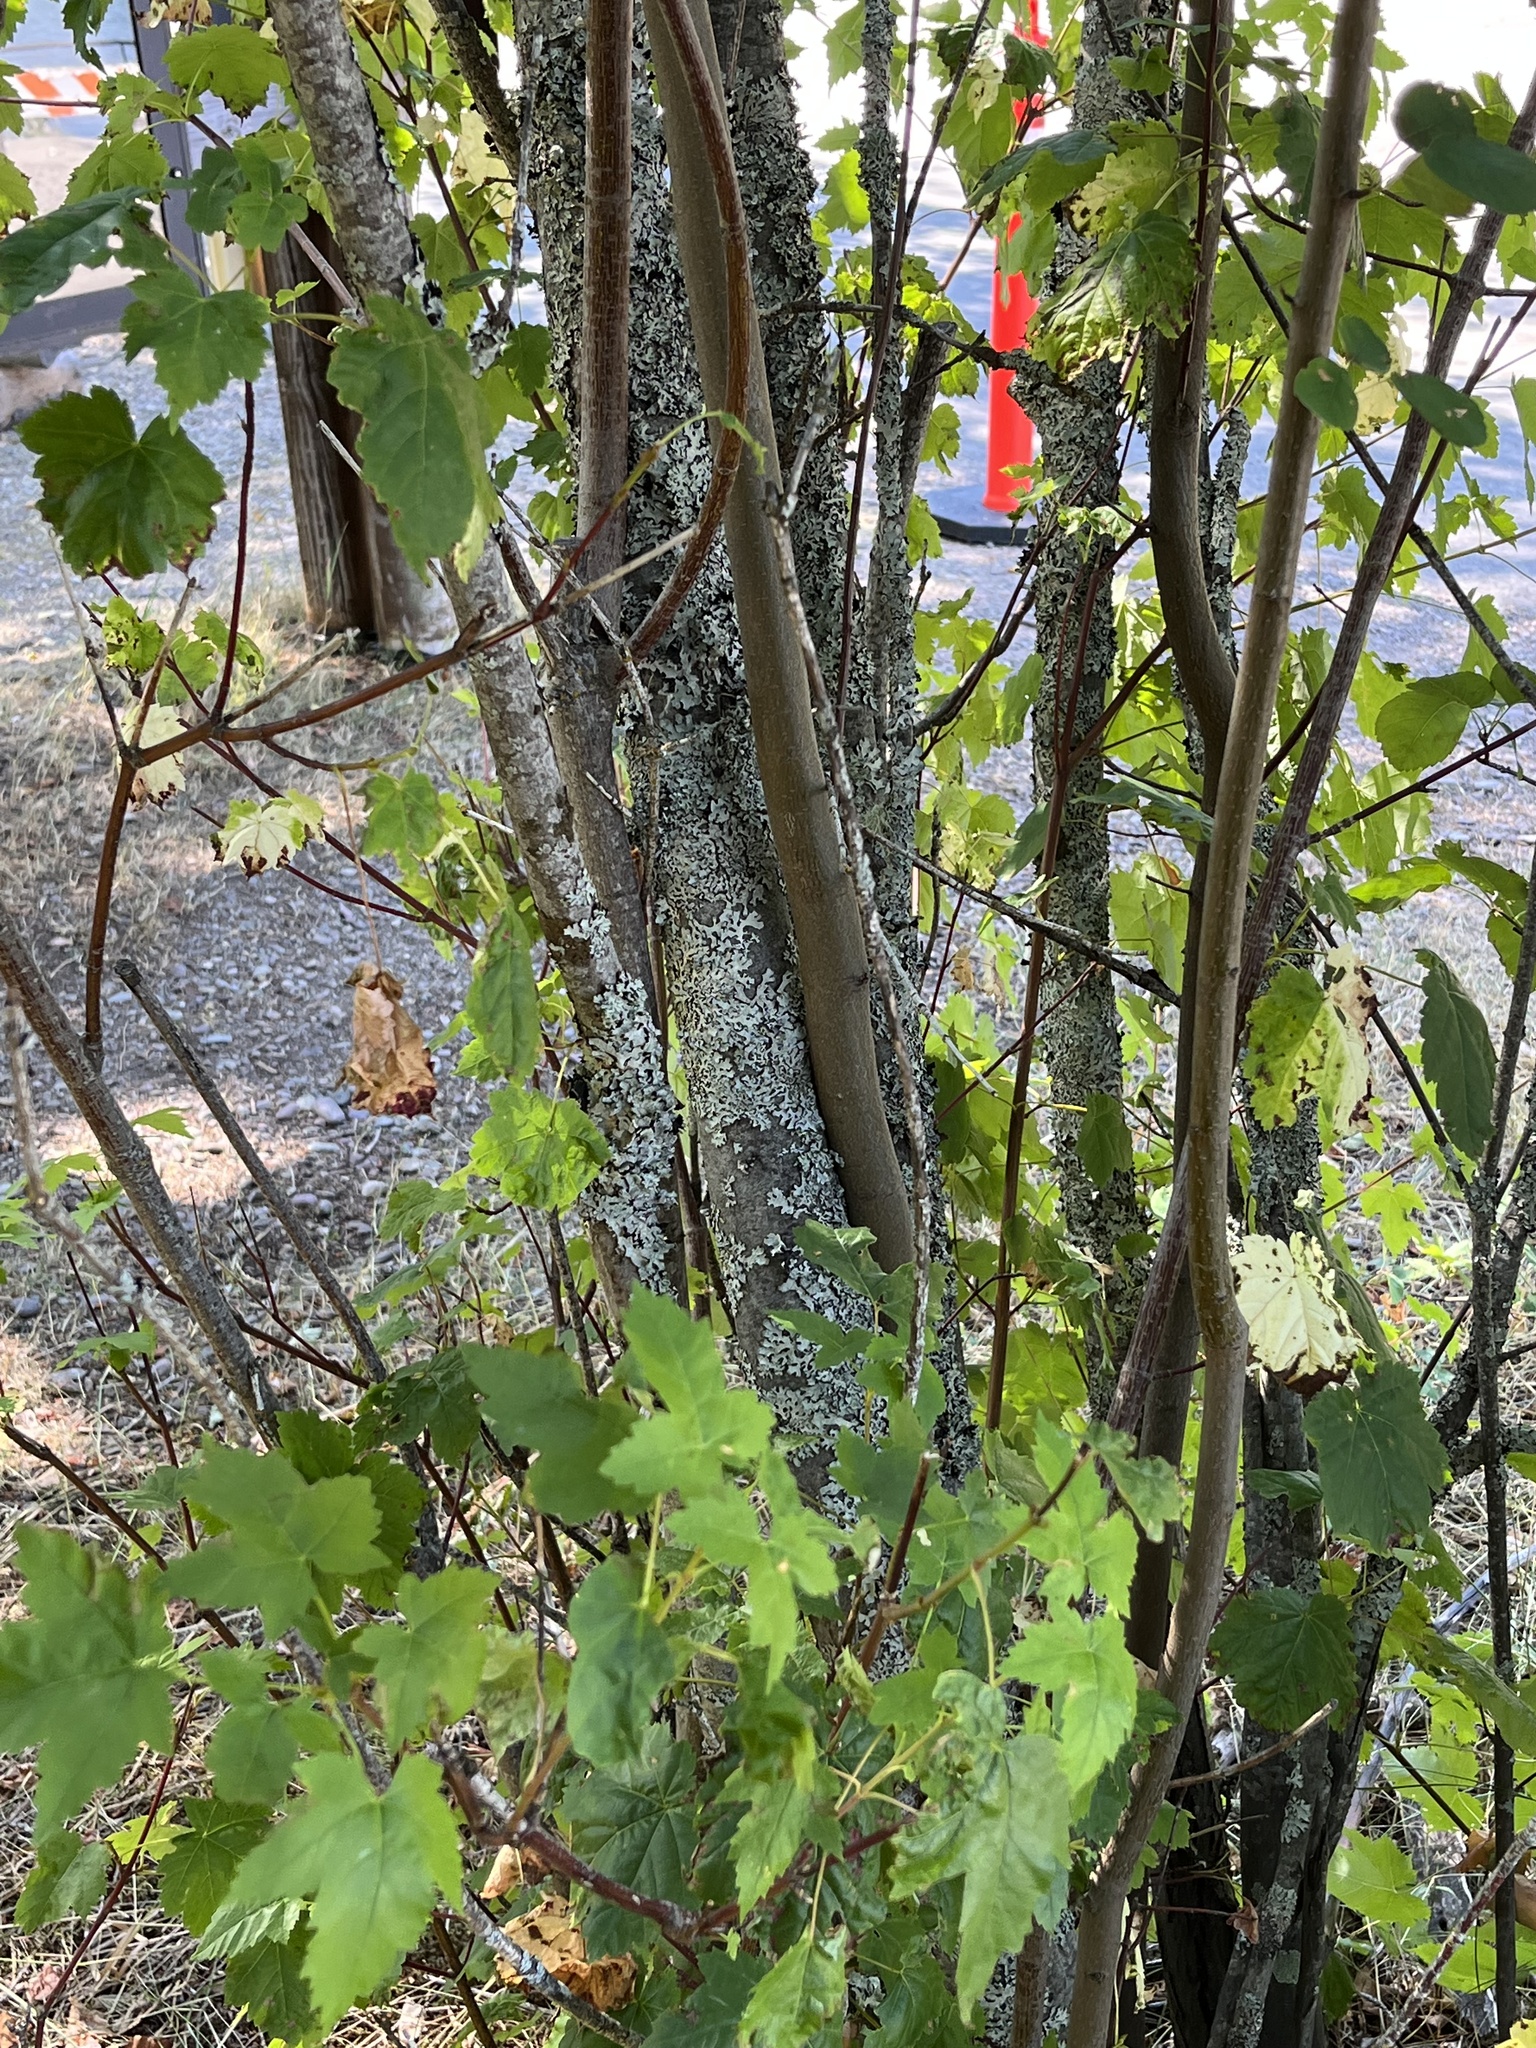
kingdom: Plantae
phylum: Tracheophyta
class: Magnoliopsida
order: Sapindales
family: Sapindaceae
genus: Acer
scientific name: Acer glabrum
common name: Rocky mountain maple
